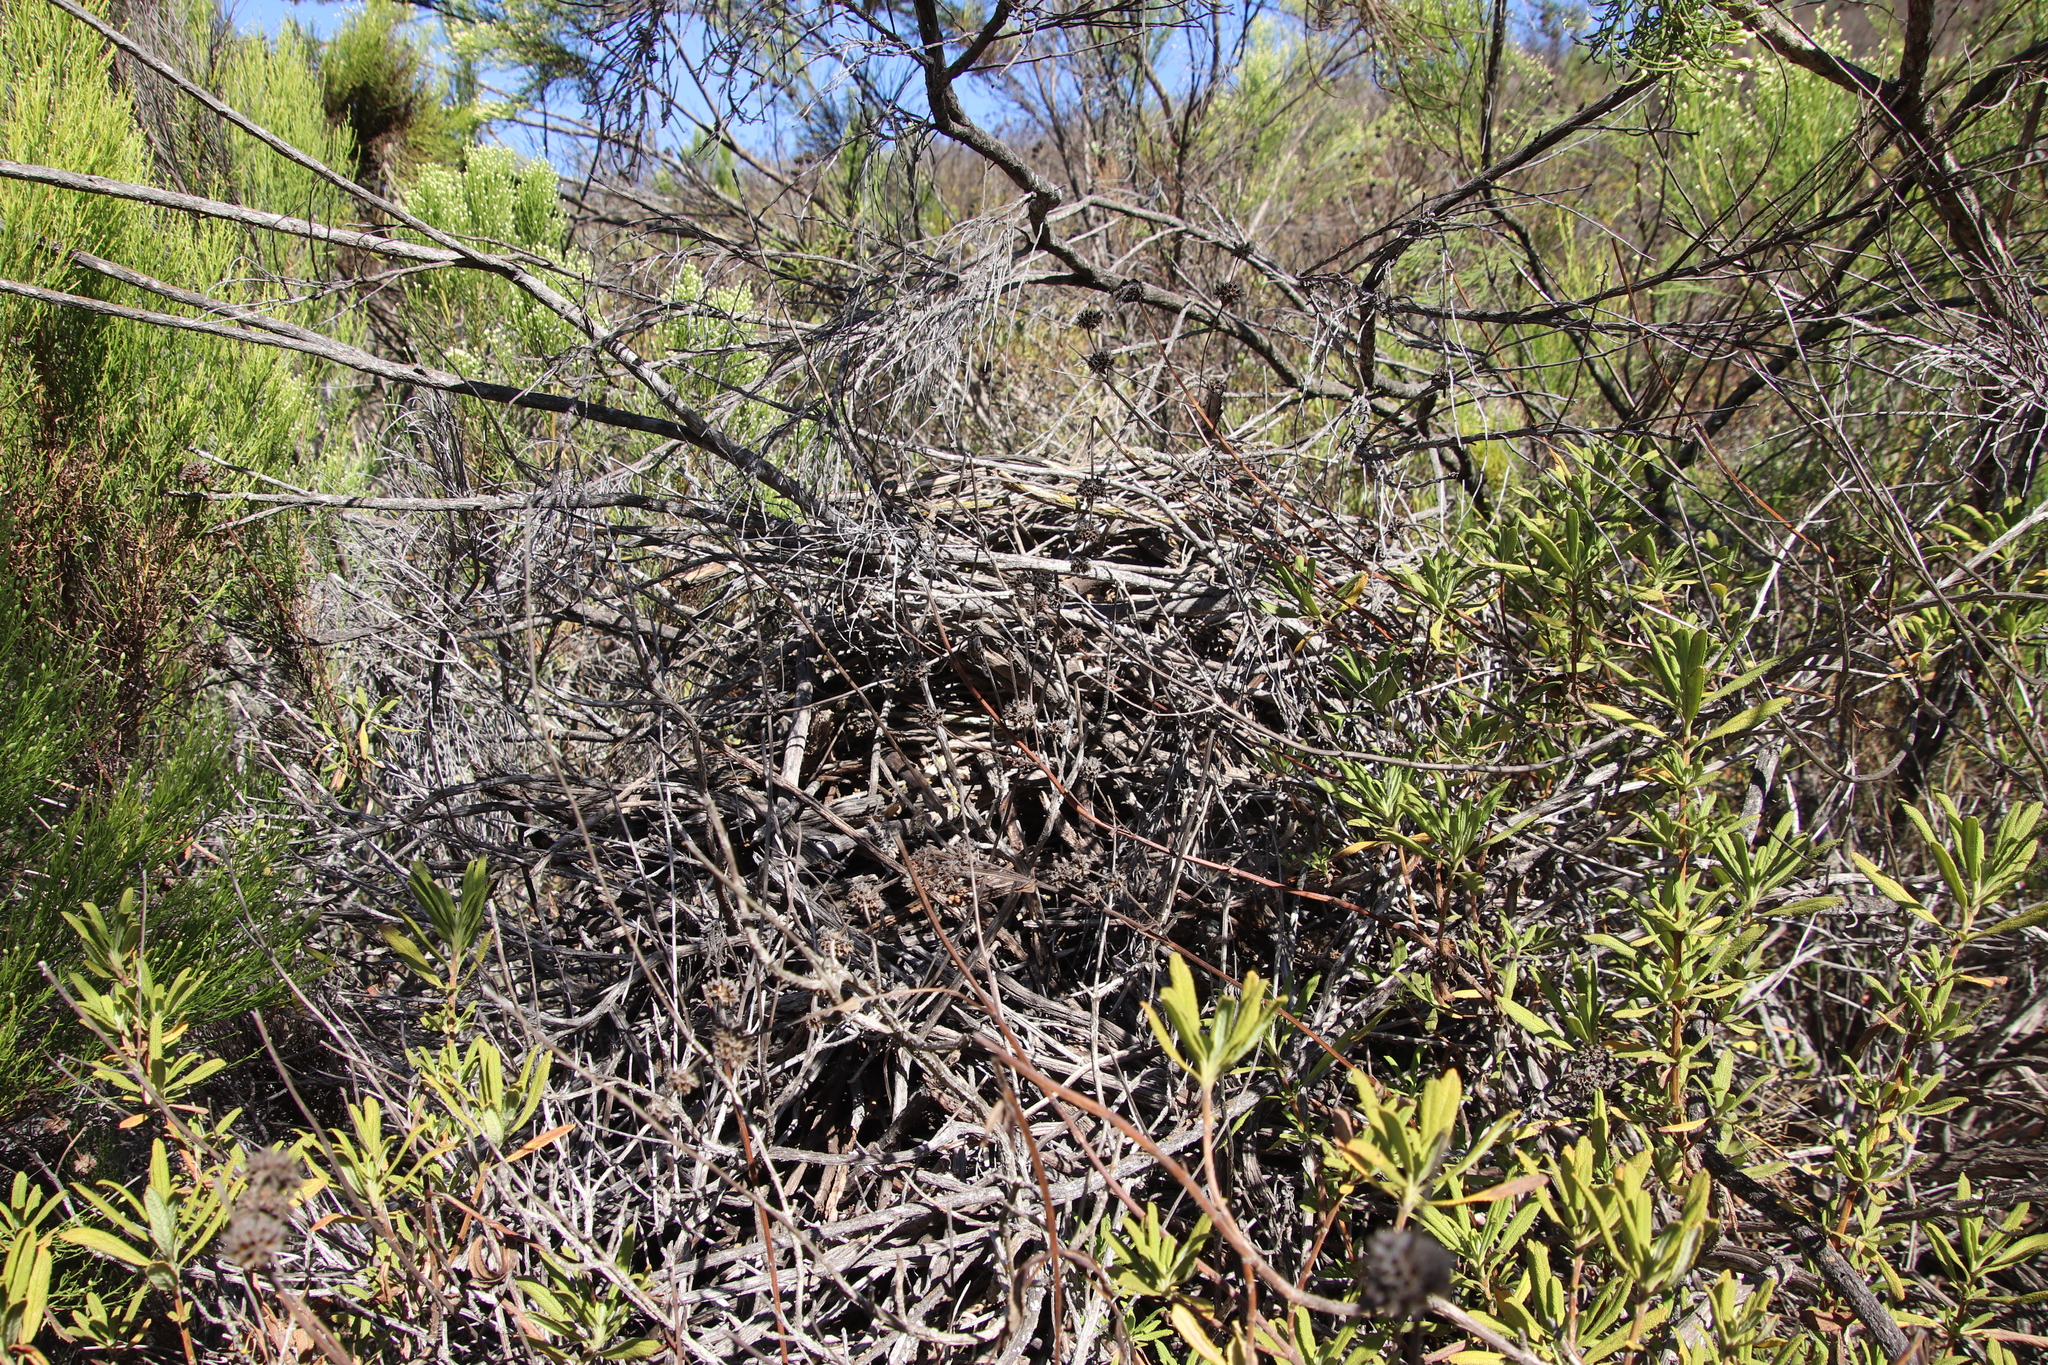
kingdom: Animalia
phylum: Chordata
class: Mammalia
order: Rodentia
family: Cricetidae
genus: Neotoma
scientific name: Neotoma macrotis
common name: Big-eared woodrat
